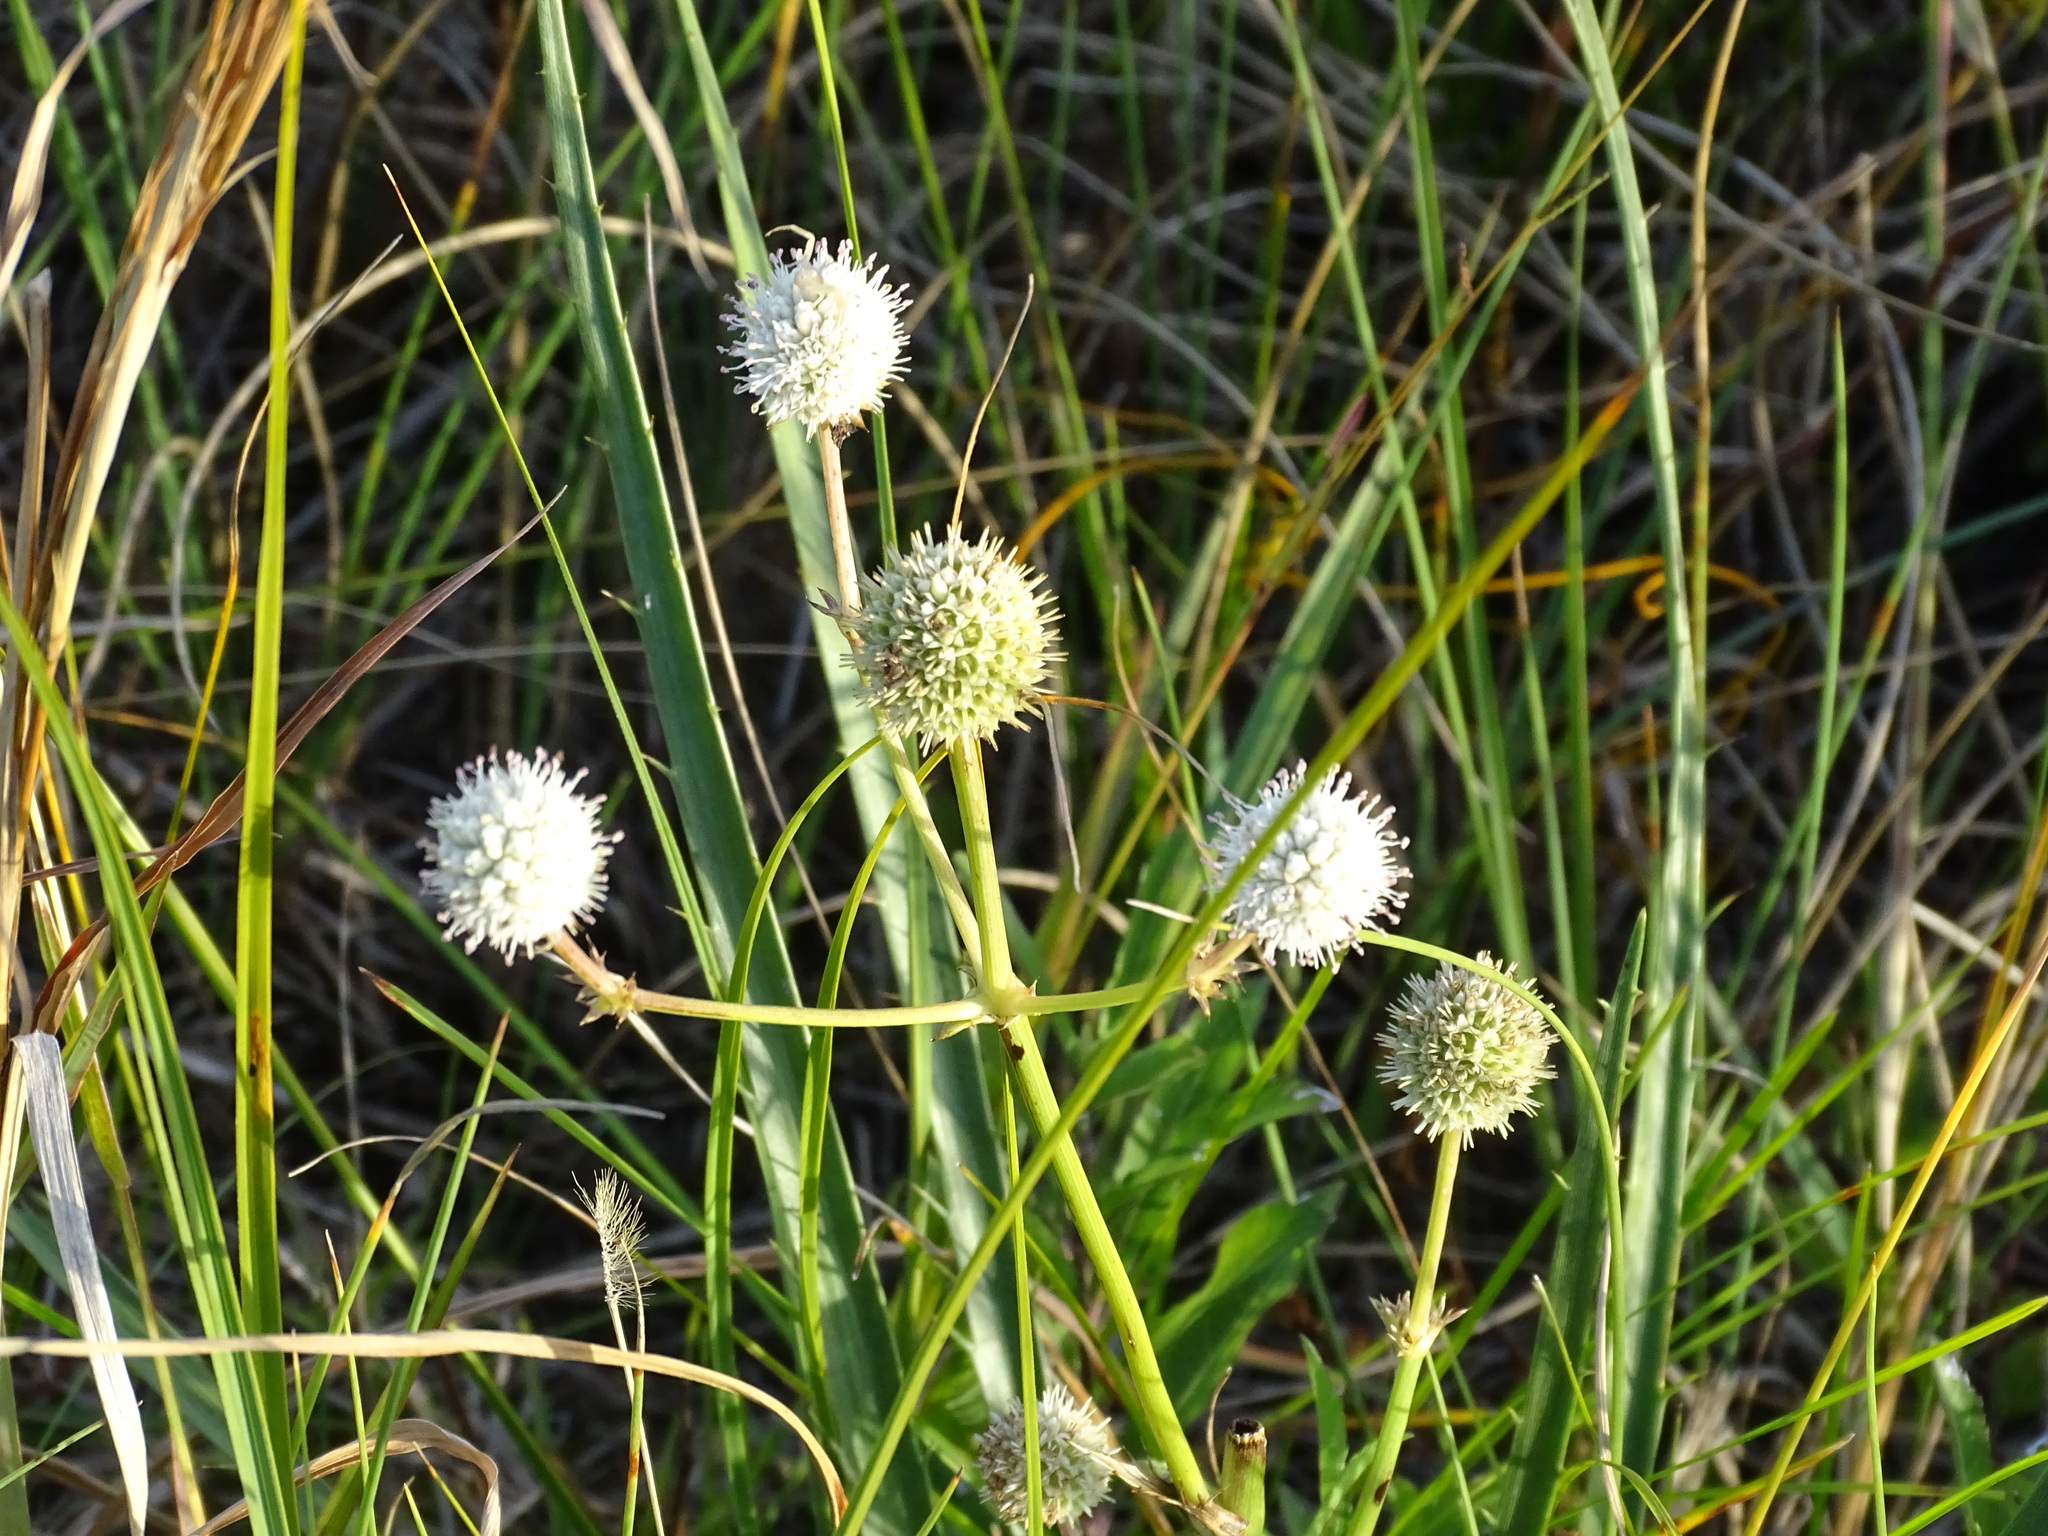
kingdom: Plantae
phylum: Tracheophyta
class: Magnoliopsida
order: Apiales
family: Apiaceae
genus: Eryngium
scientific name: Eryngium yuccifolium
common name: Button eryngo
